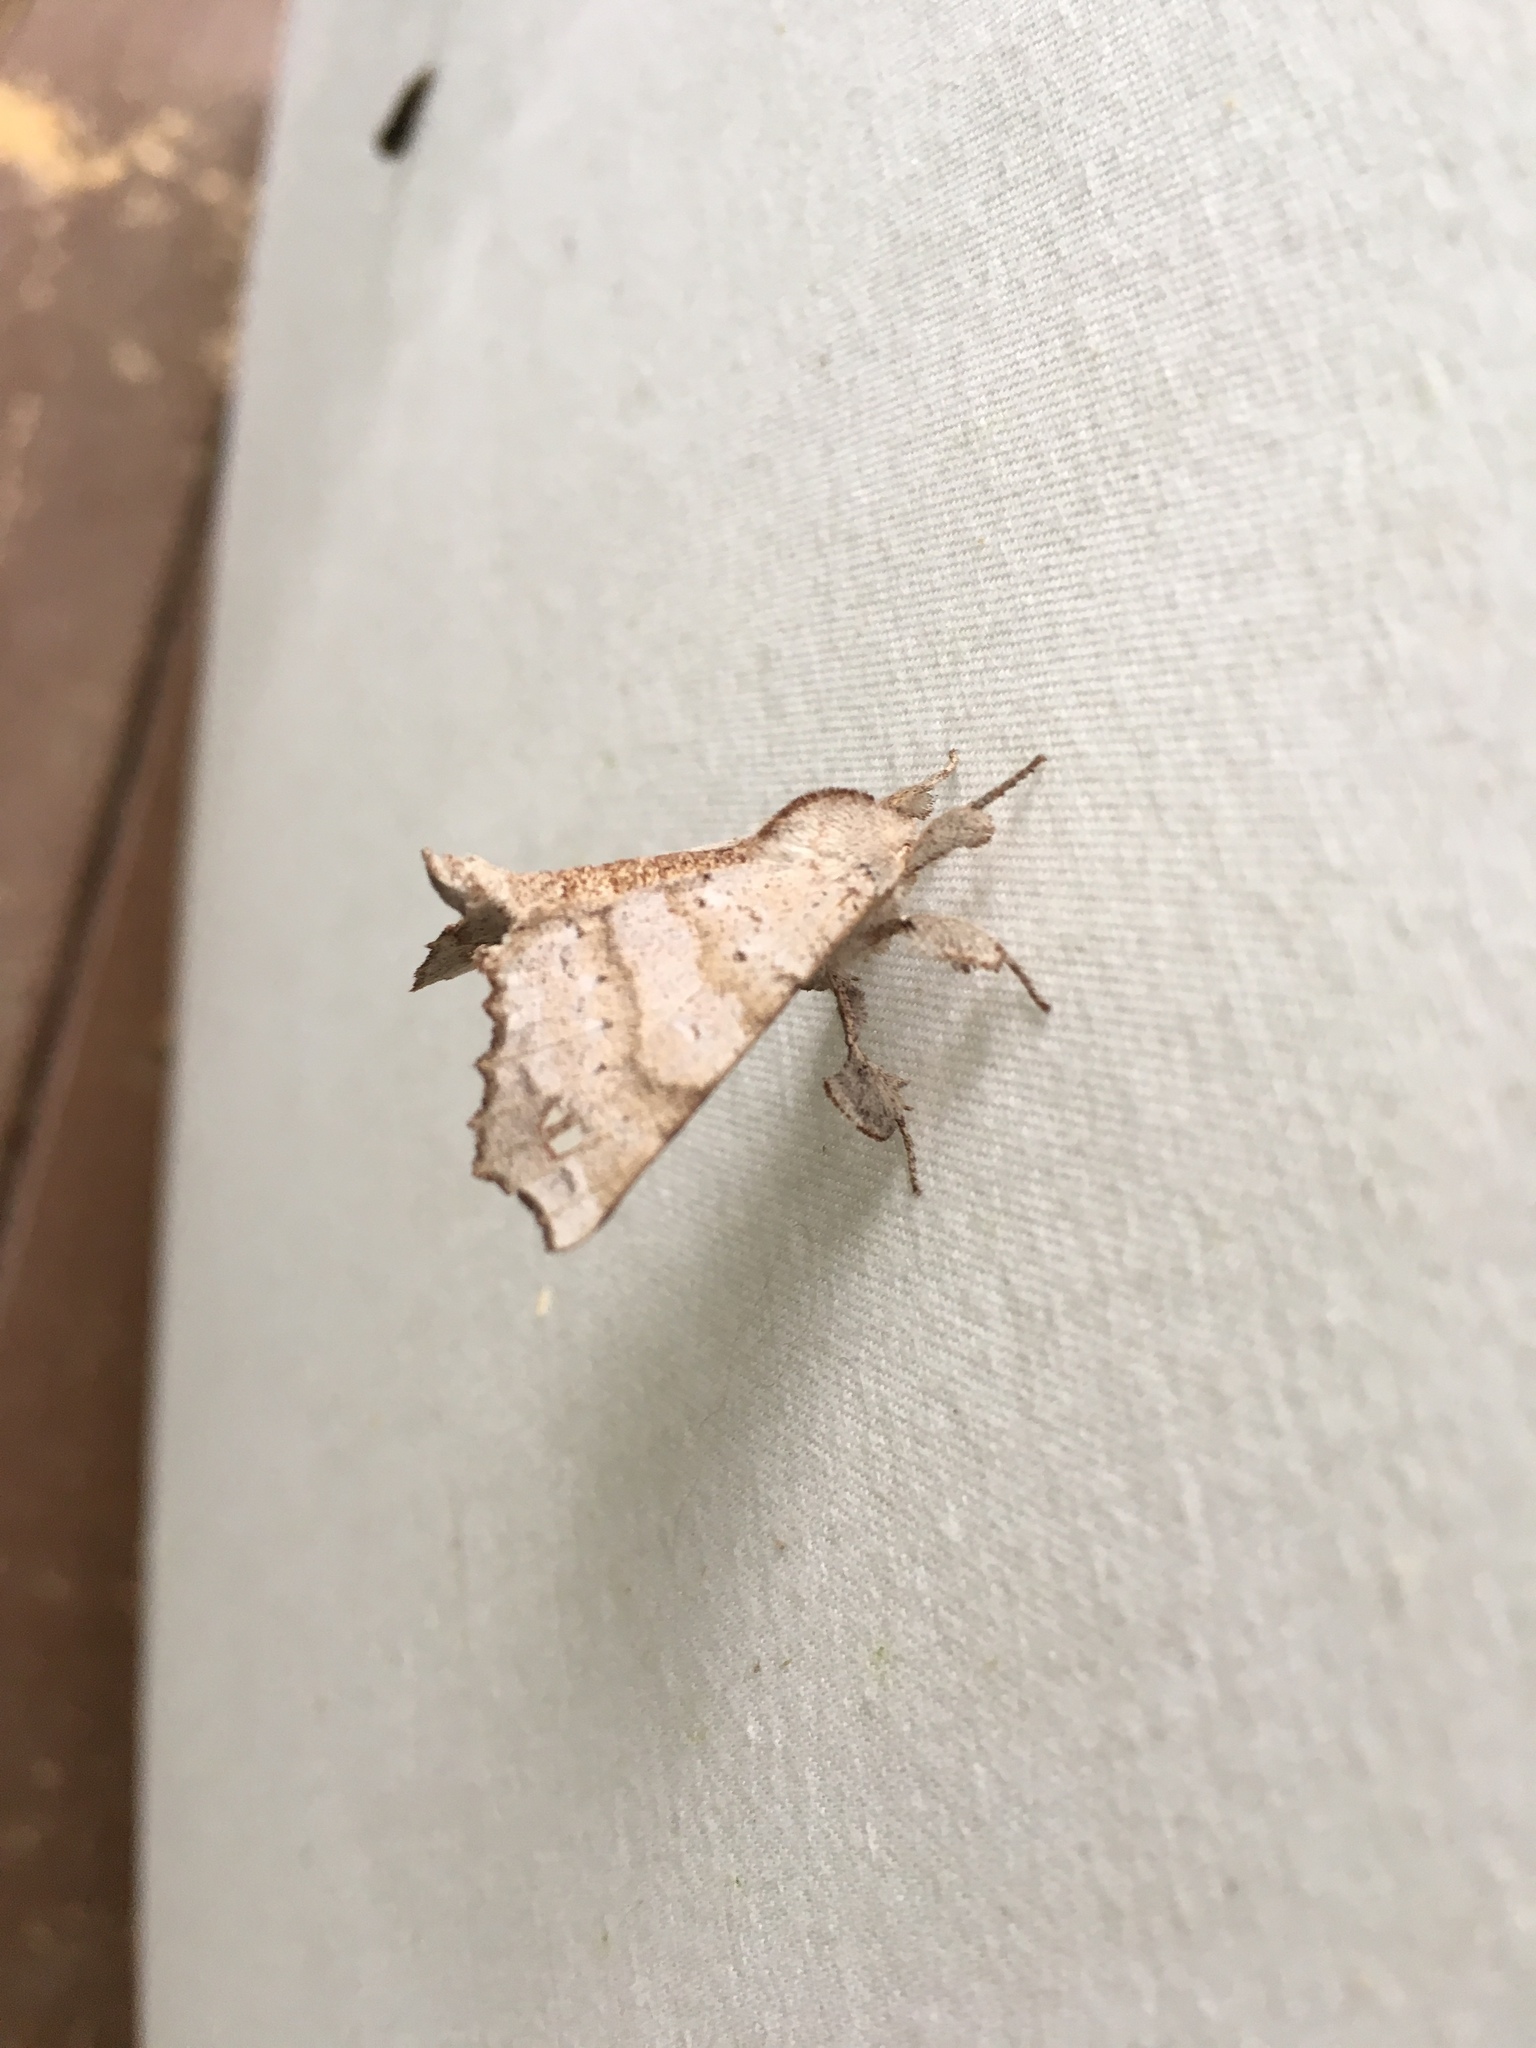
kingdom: Animalia
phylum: Arthropoda
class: Insecta
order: Lepidoptera
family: Apatelodidae
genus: Olceclostera
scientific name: Olceclostera angelica
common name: Angel moth
